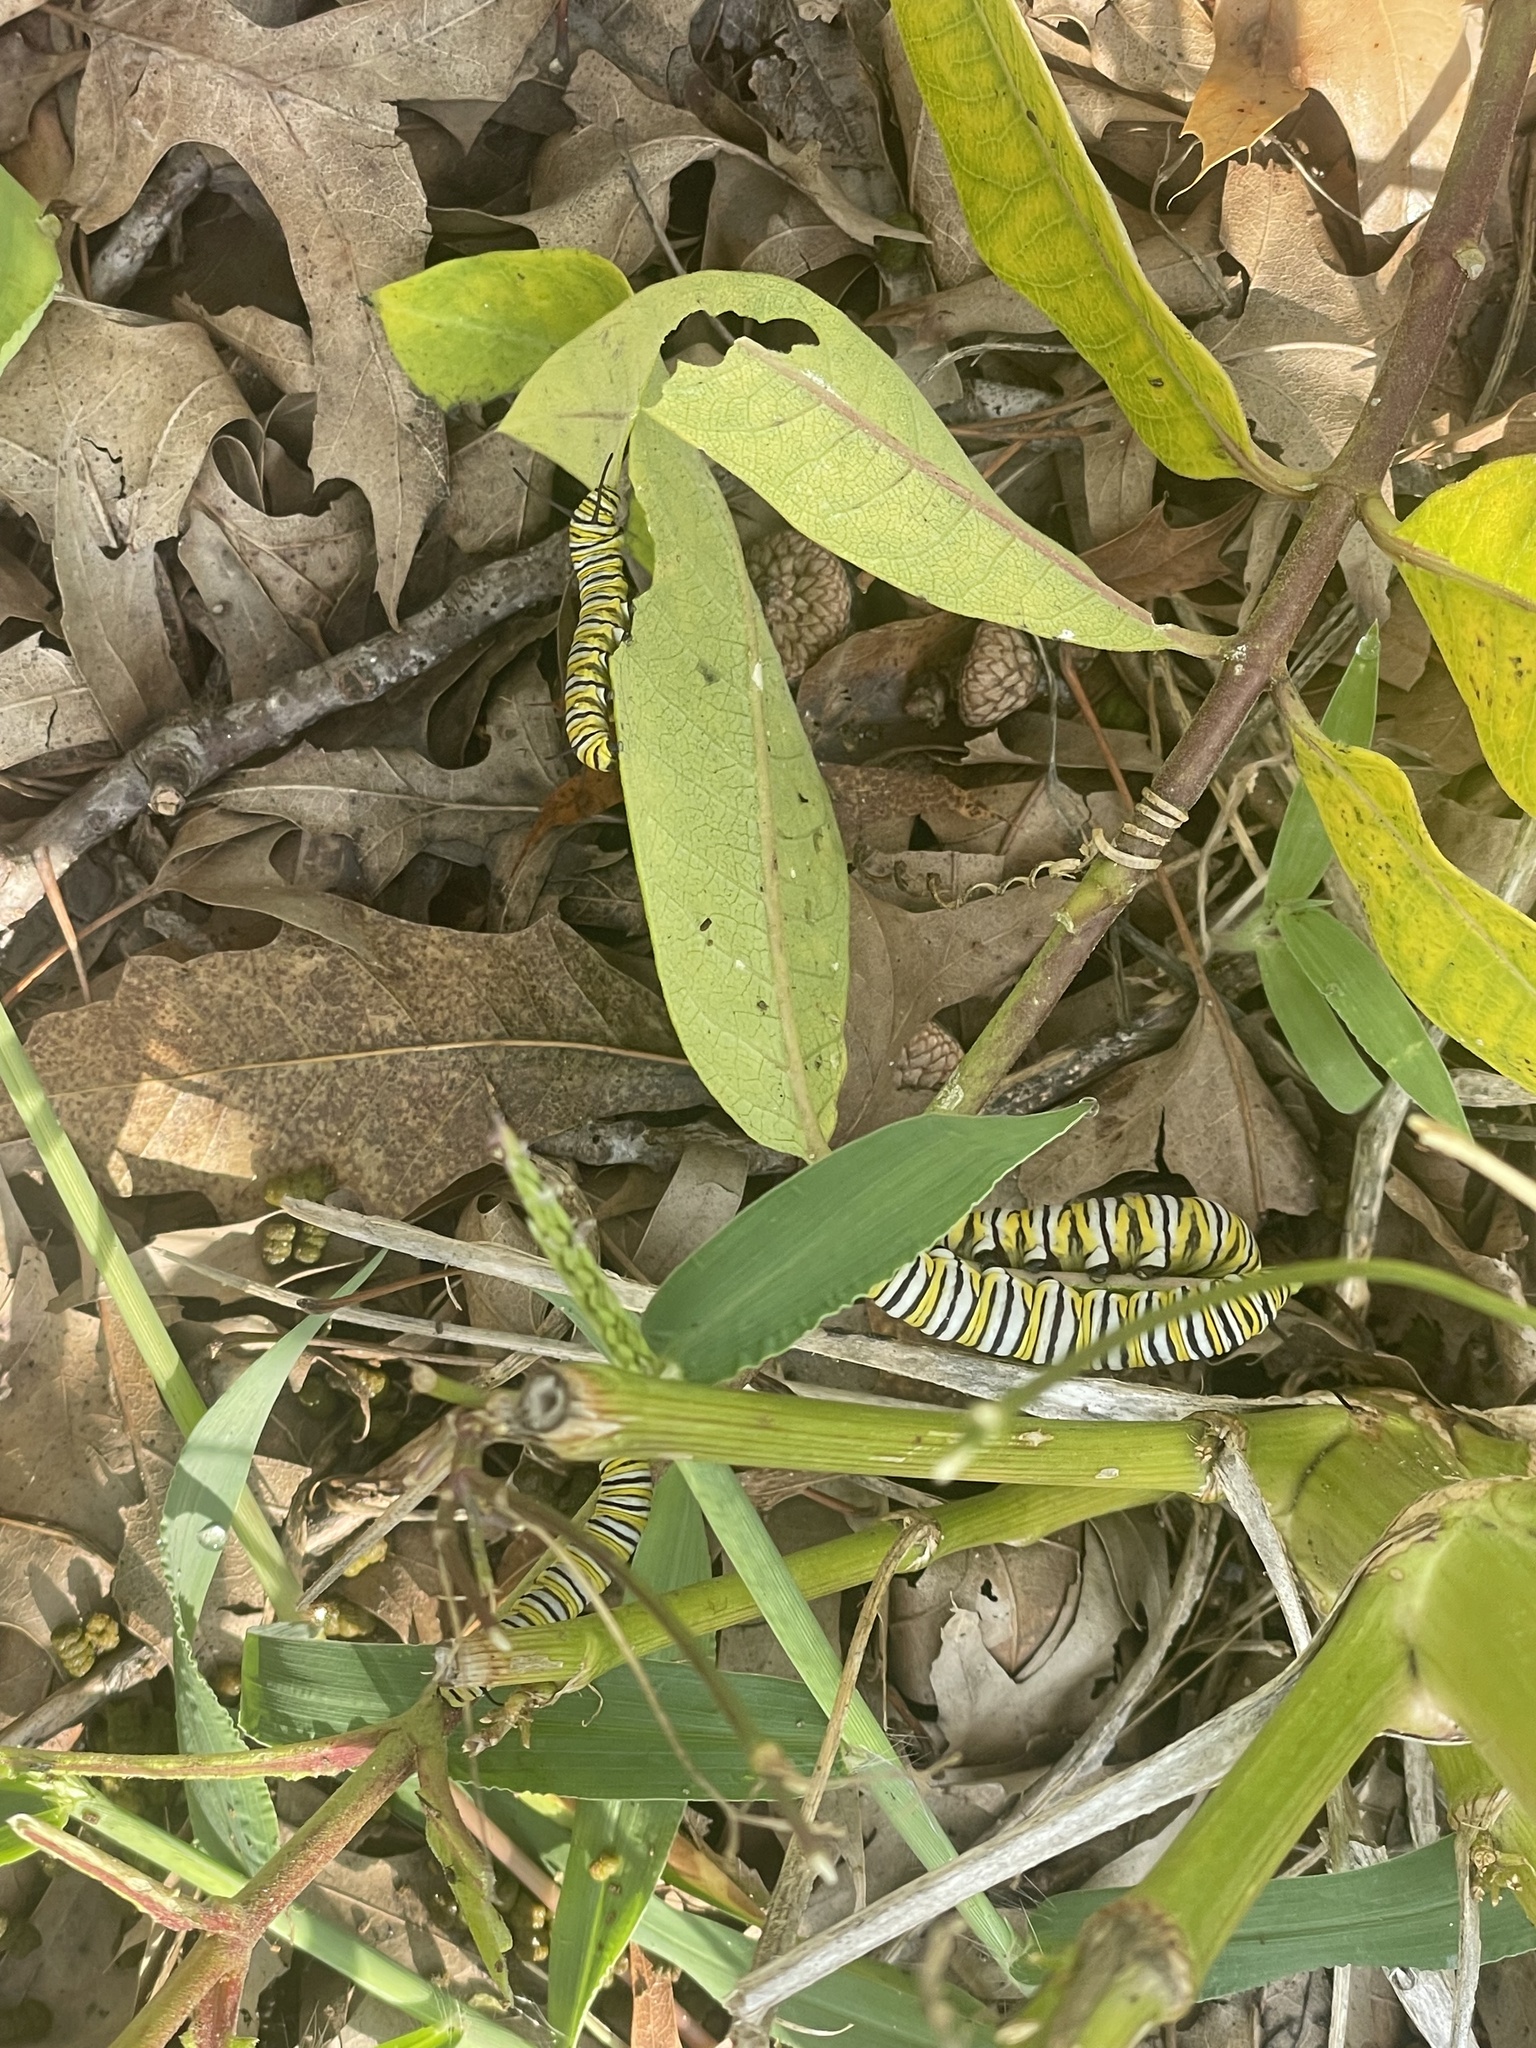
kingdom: Animalia
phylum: Arthropoda
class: Insecta
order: Lepidoptera
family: Nymphalidae
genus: Danaus
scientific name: Danaus plexippus
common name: Monarch
